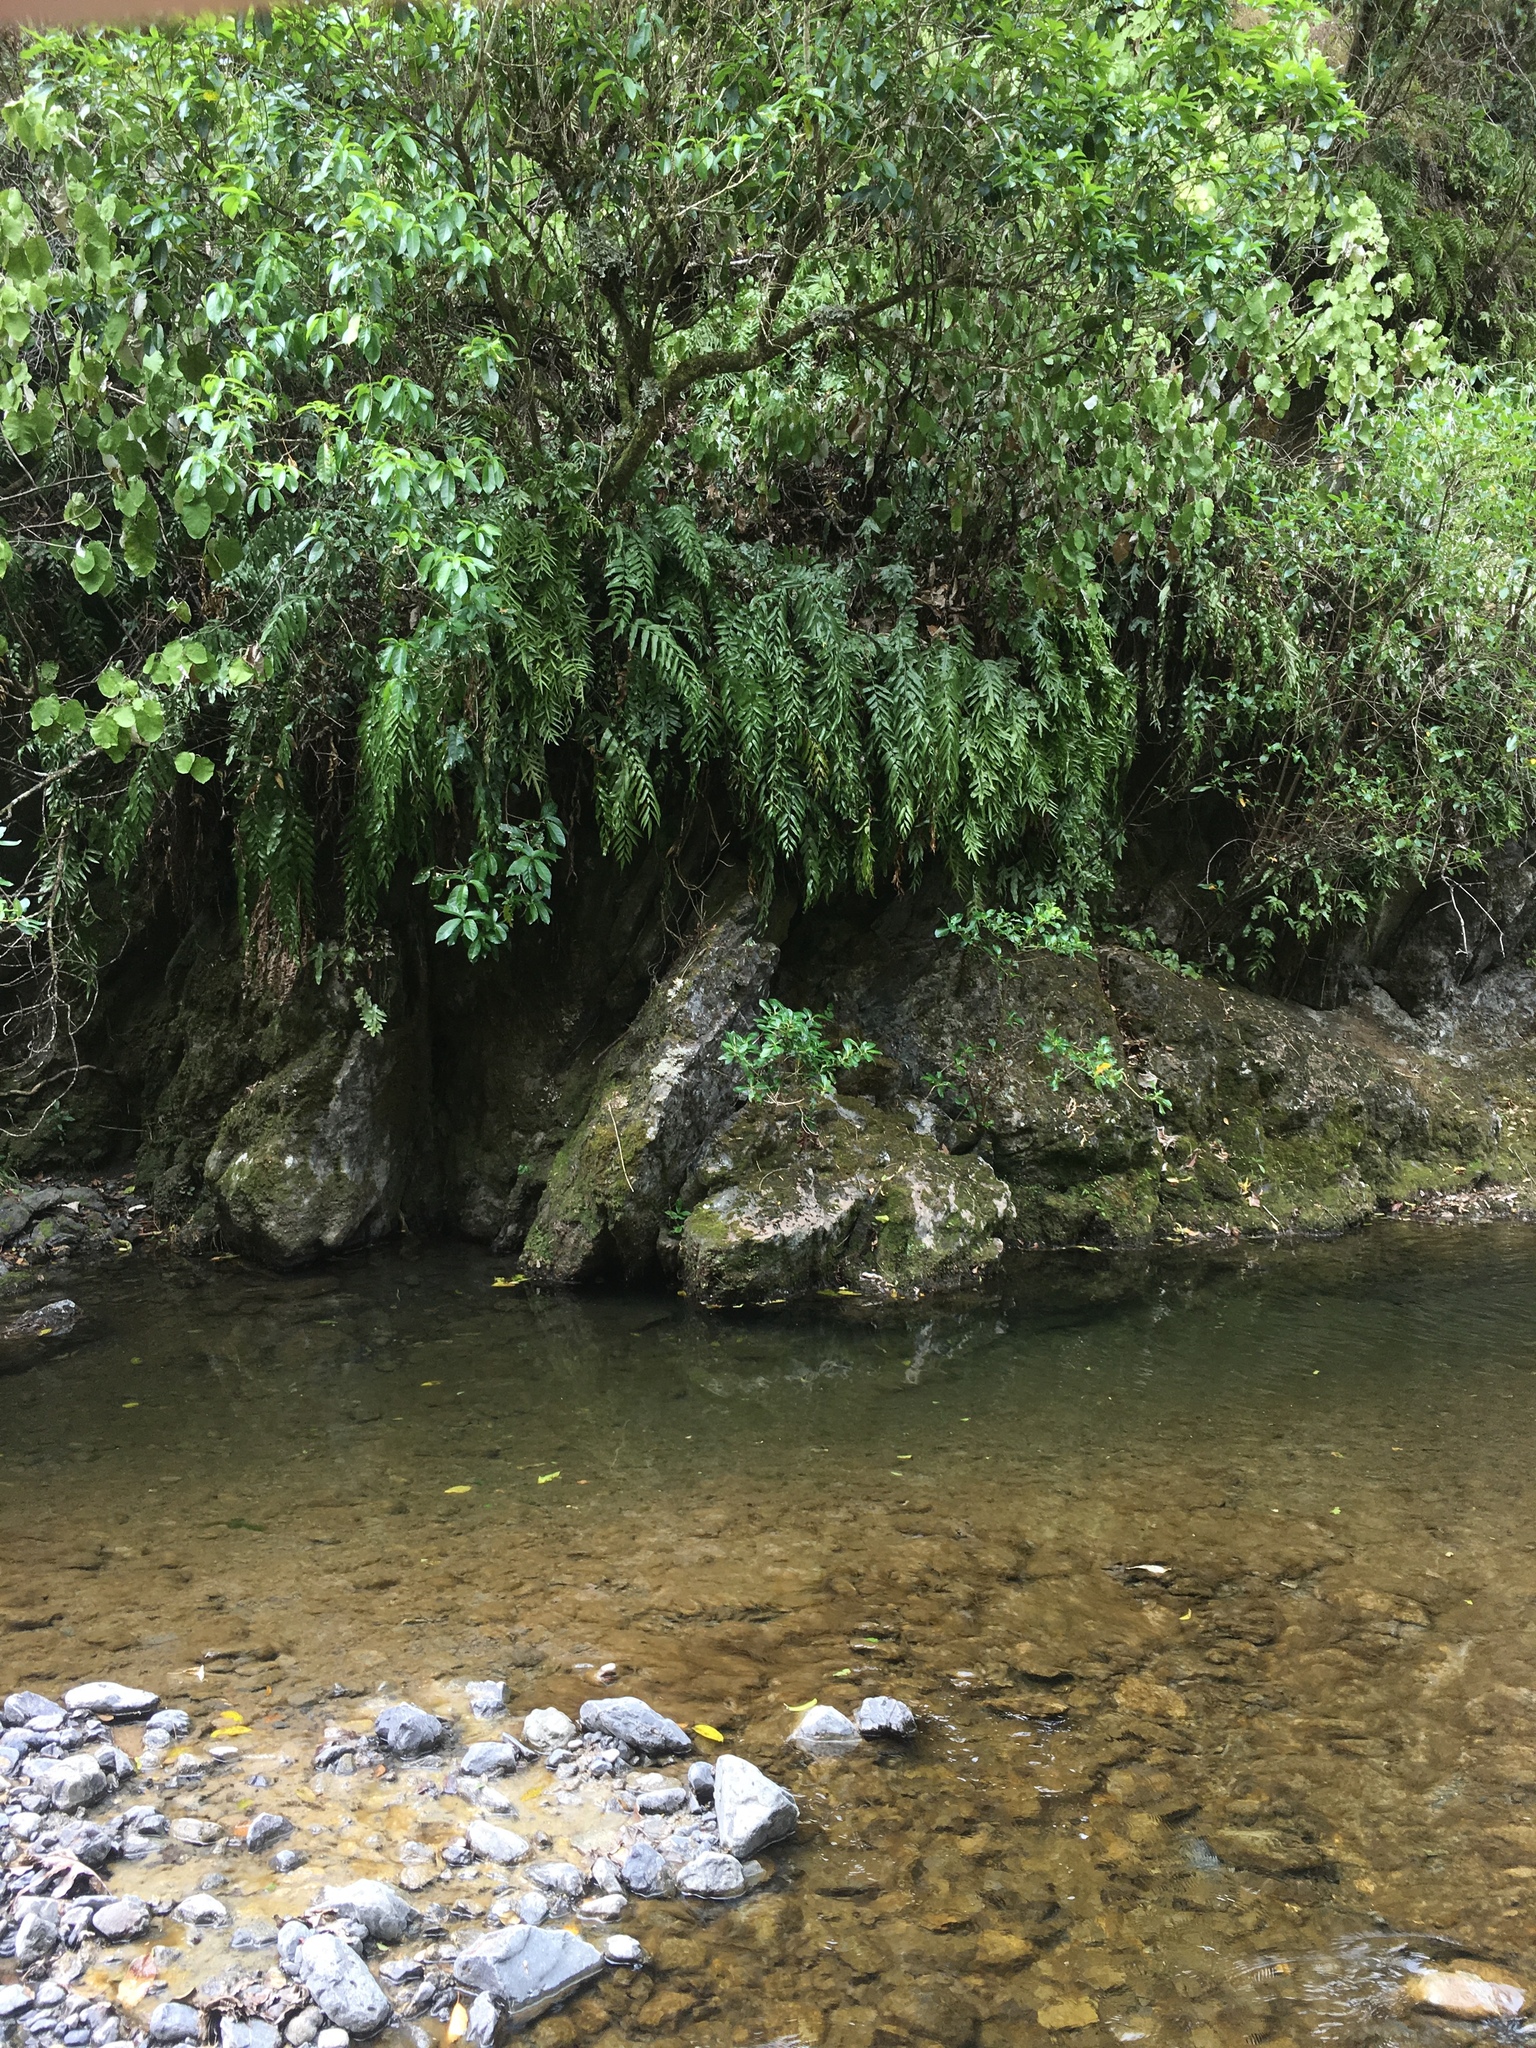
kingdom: Plantae
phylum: Tracheophyta
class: Polypodiopsida
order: Polypodiales
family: Aspleniaceae
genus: Asplenium
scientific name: Asplenium oblongifolium
